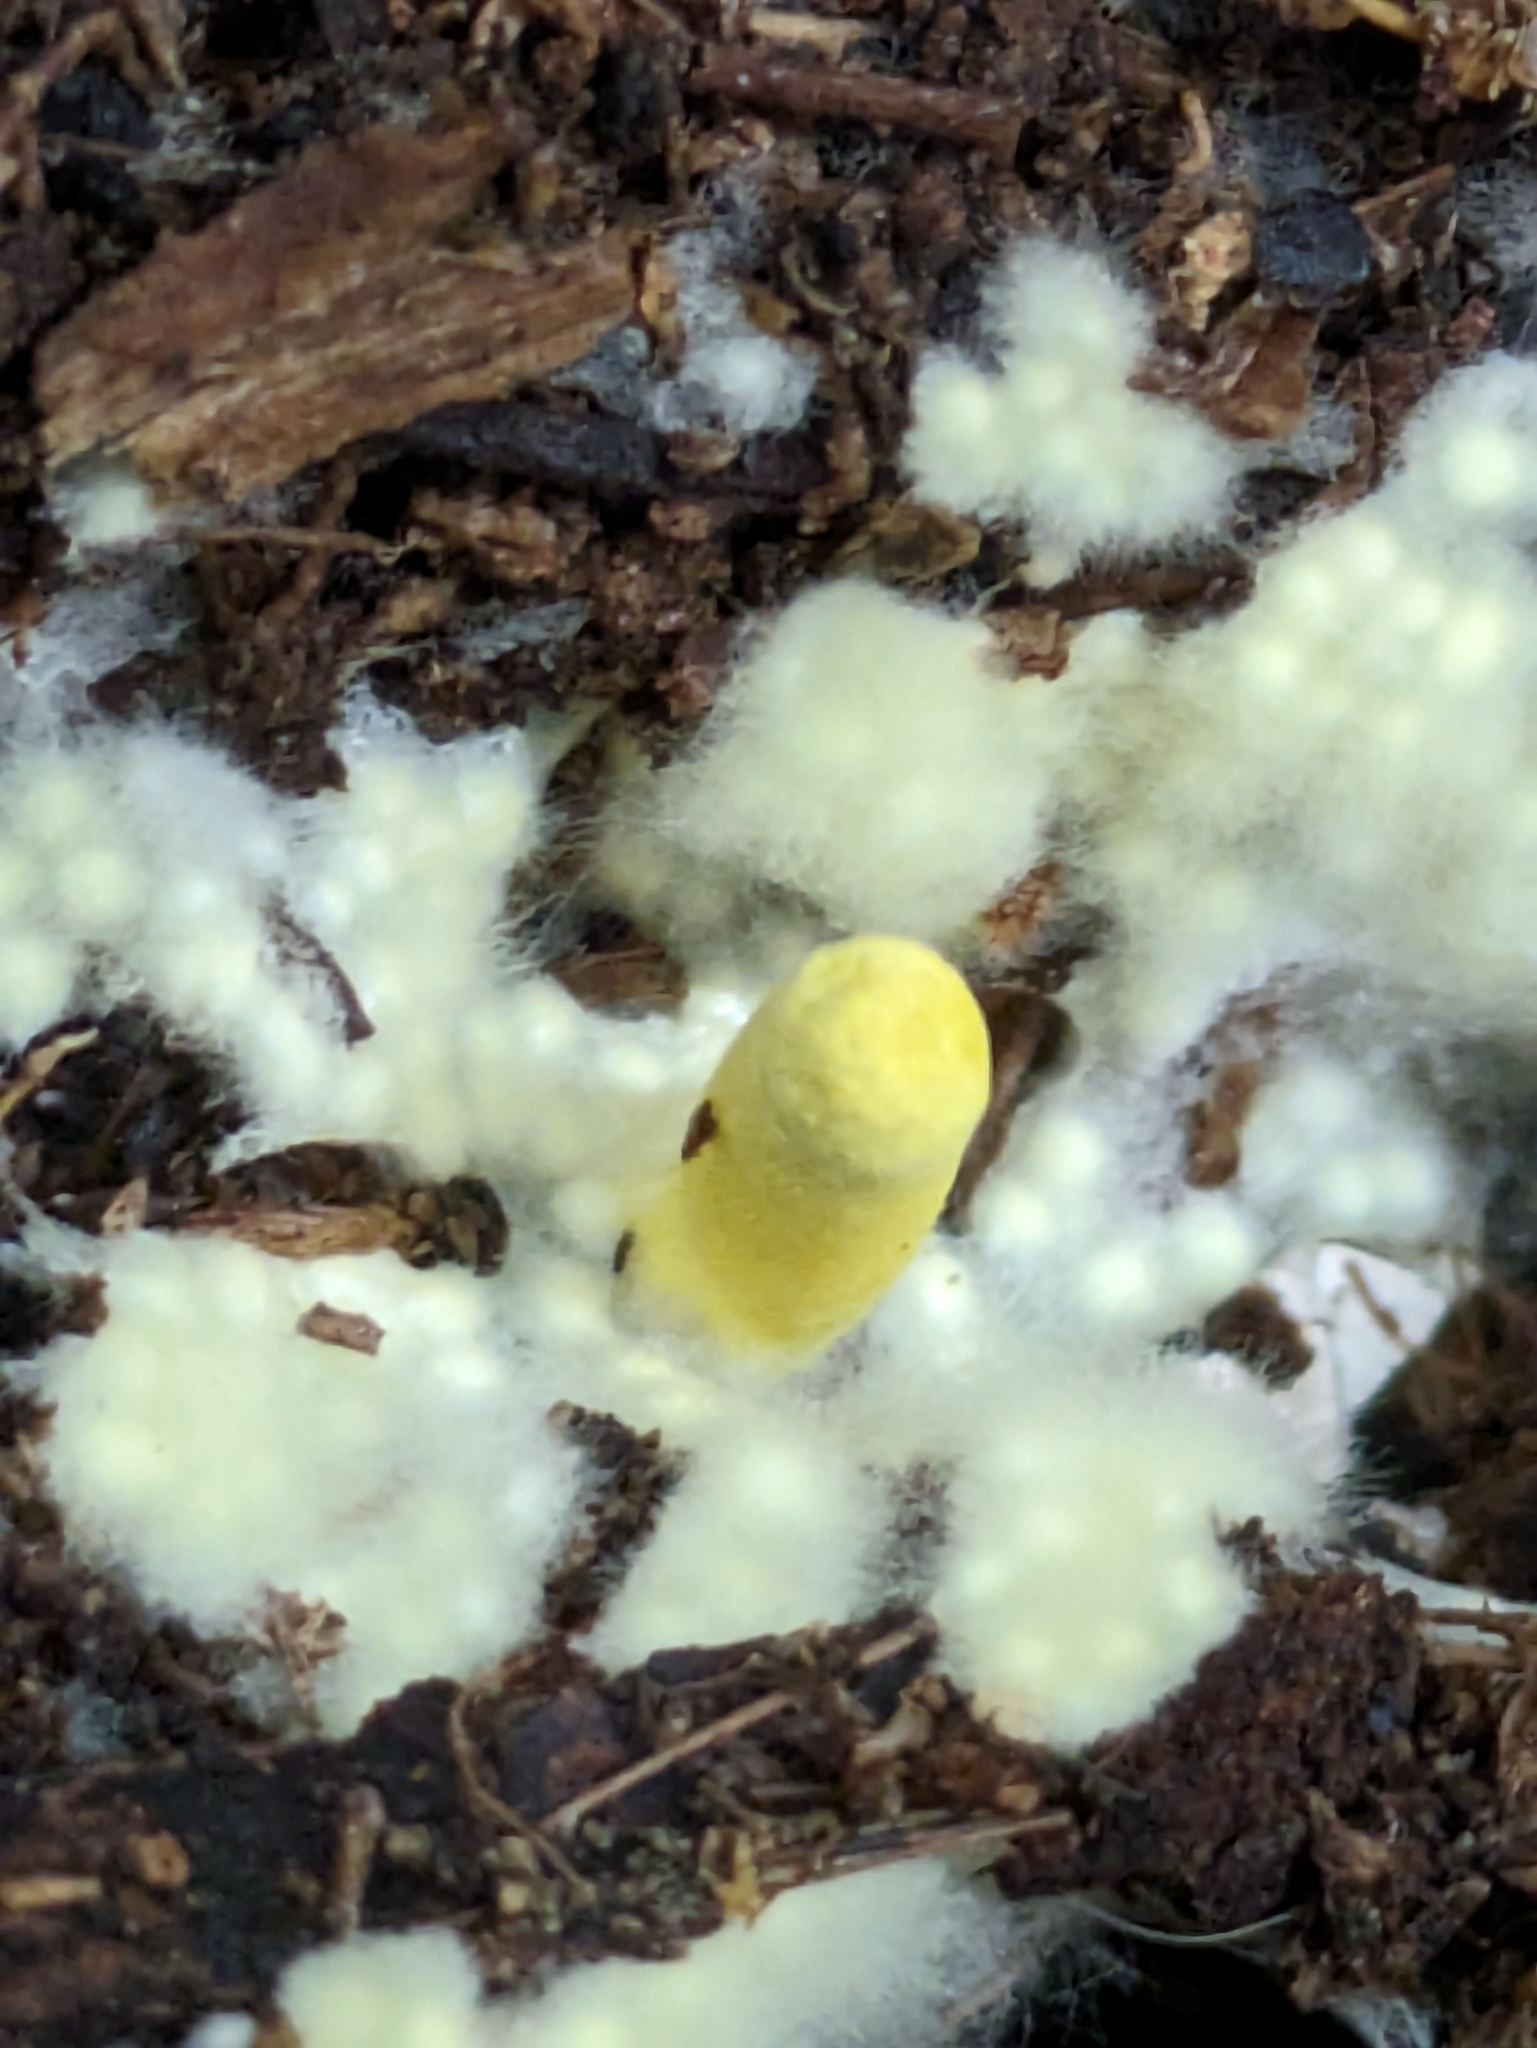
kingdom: Fungi
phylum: Basidiomycota
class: Agaricomycetes
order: Agaricales
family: Agaricaceae
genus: Leucocoprinus
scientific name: Leucocoprinus birnbaumii
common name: Plantpot dapperling
